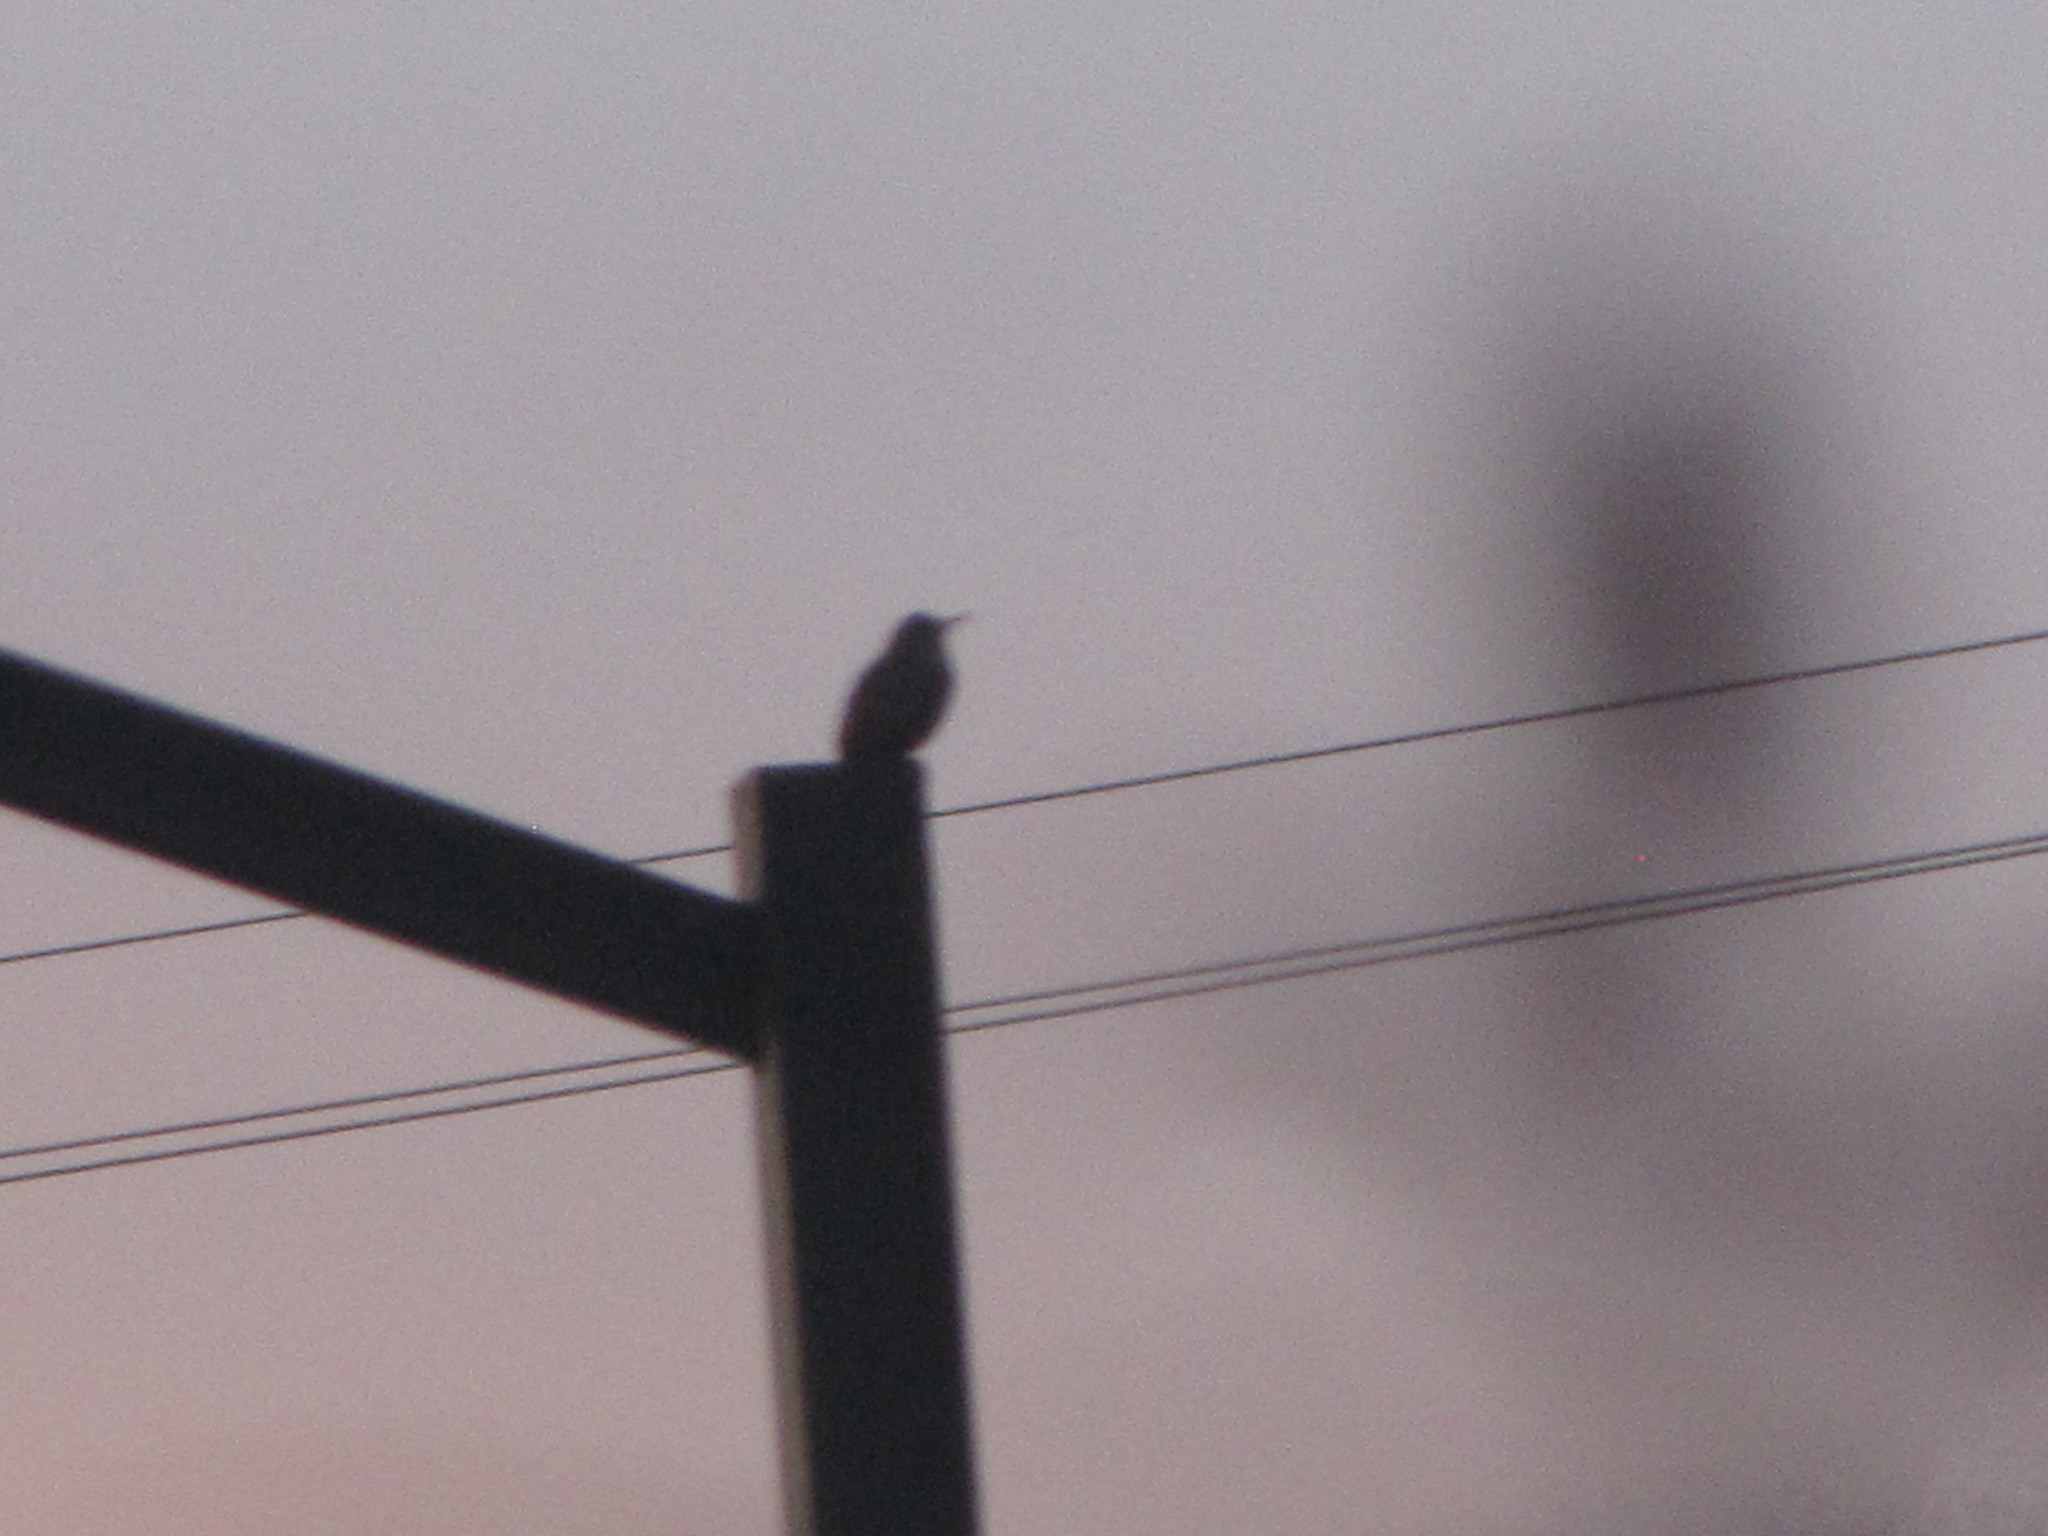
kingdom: Animalia
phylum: Chordata
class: Aves
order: Passeriformes
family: Sturnidae
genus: Sturnus
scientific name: Sturnus vulgaris
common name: Common starling
